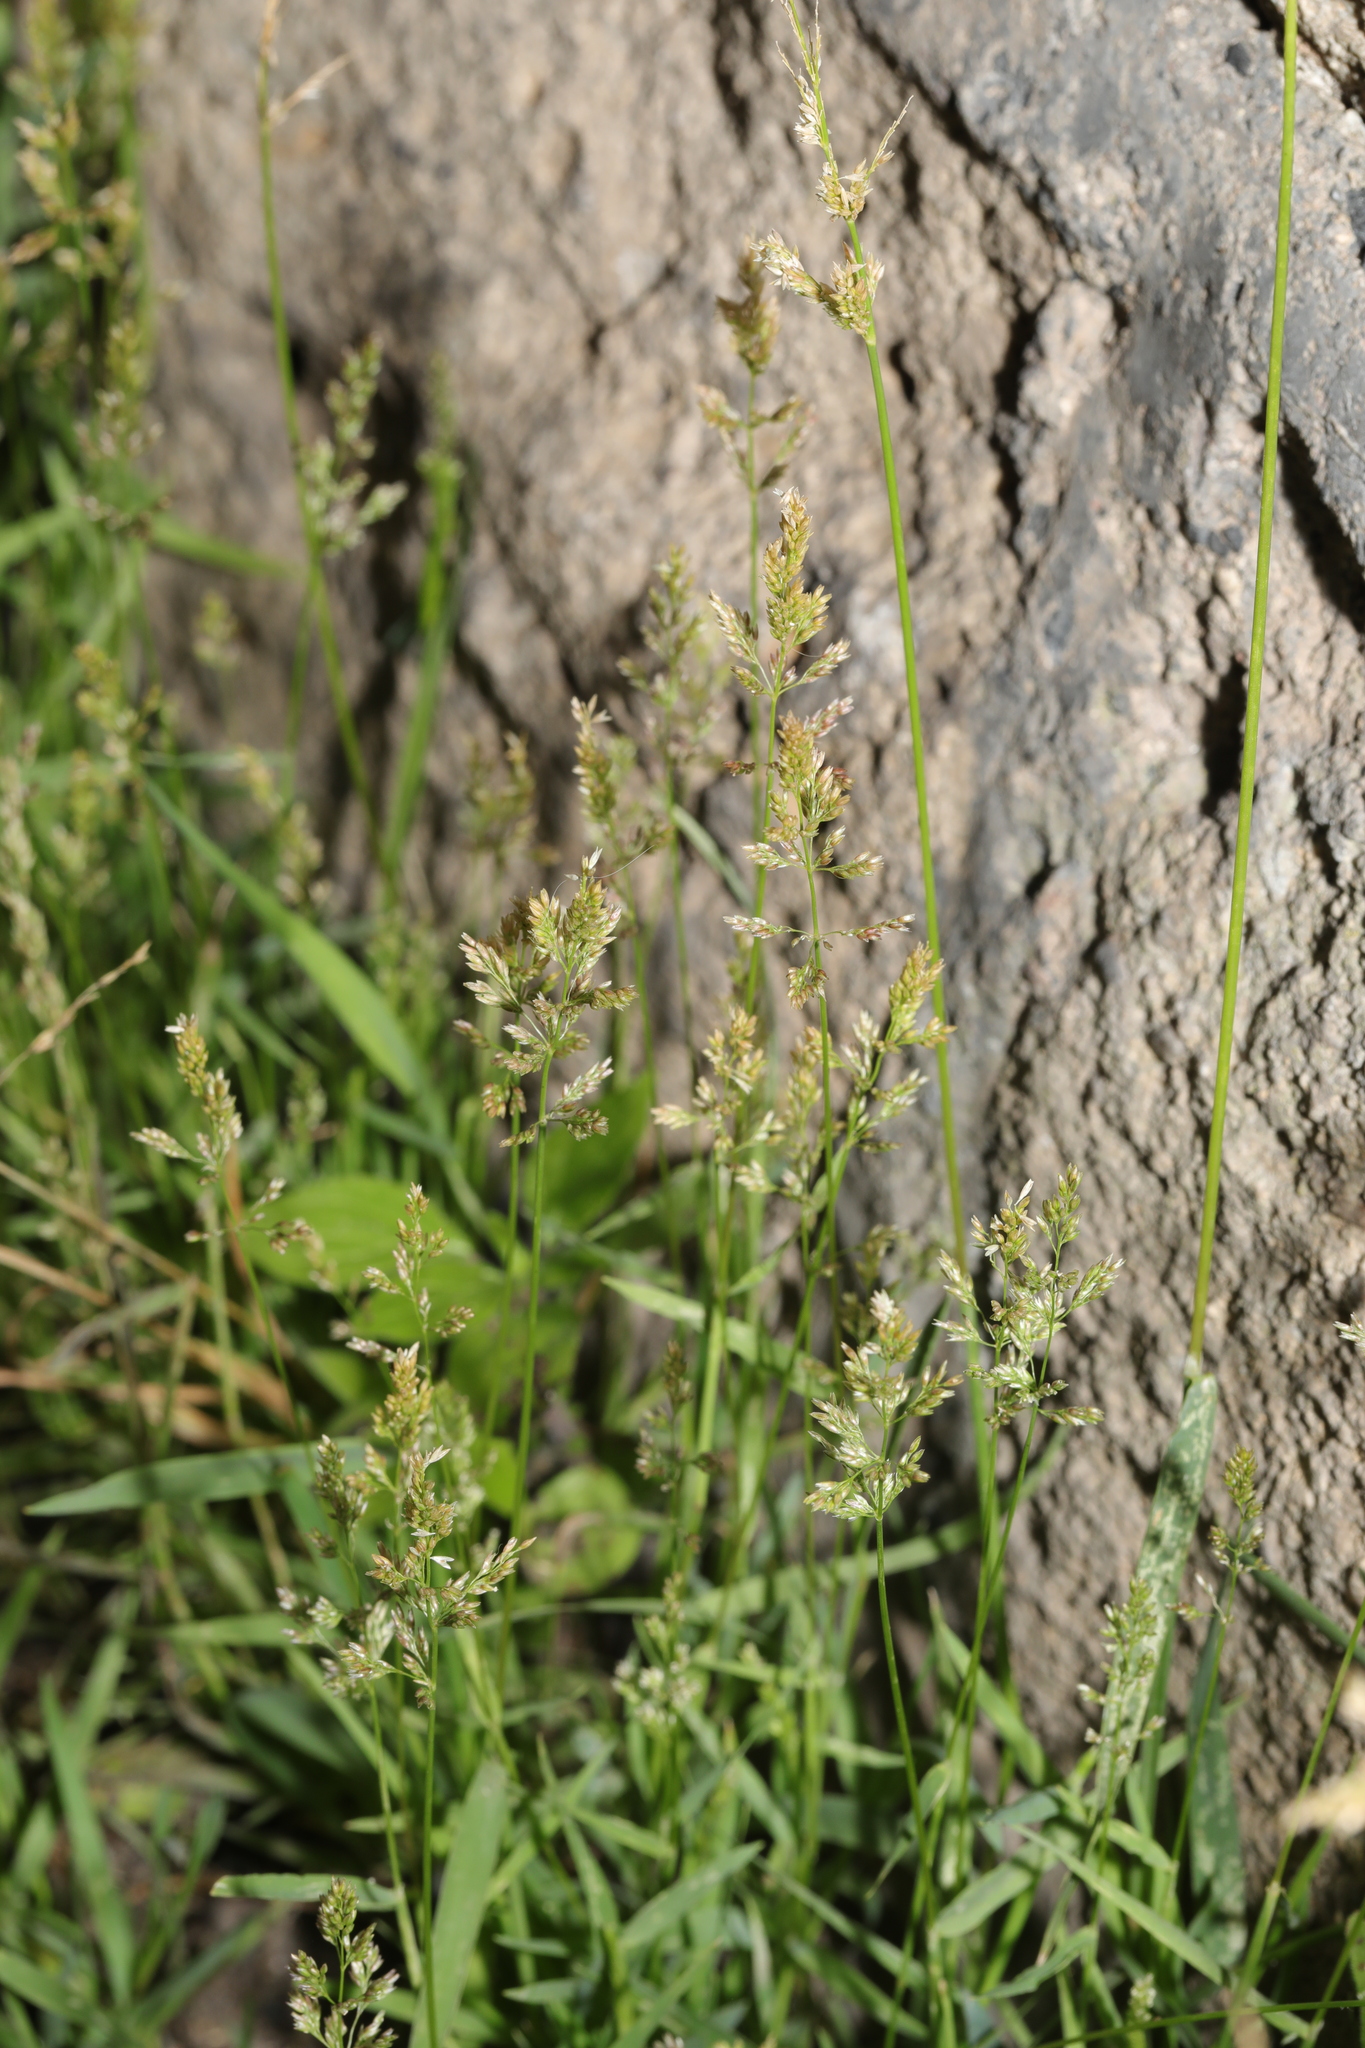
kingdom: Plantae
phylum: Tracheophyta
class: Liliopsida
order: Poales
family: Poaceae
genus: Polypogon
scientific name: Polypogon viridis
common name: Water bent
